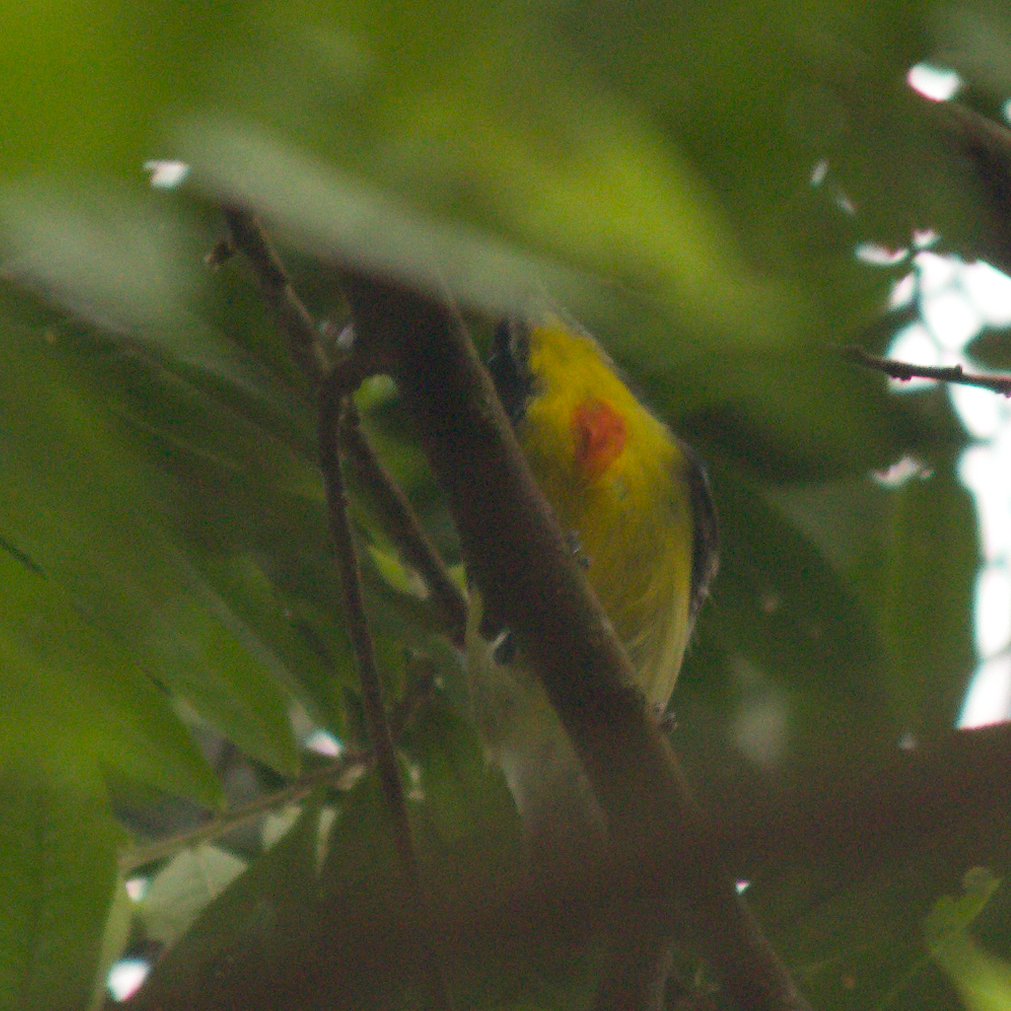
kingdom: Animalia
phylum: Chordata
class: Aves
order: Passeriformes
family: Dicaeidae
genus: Prionochilus
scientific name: Prionochilus percussus
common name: Crimson-breasted flowerpecker
